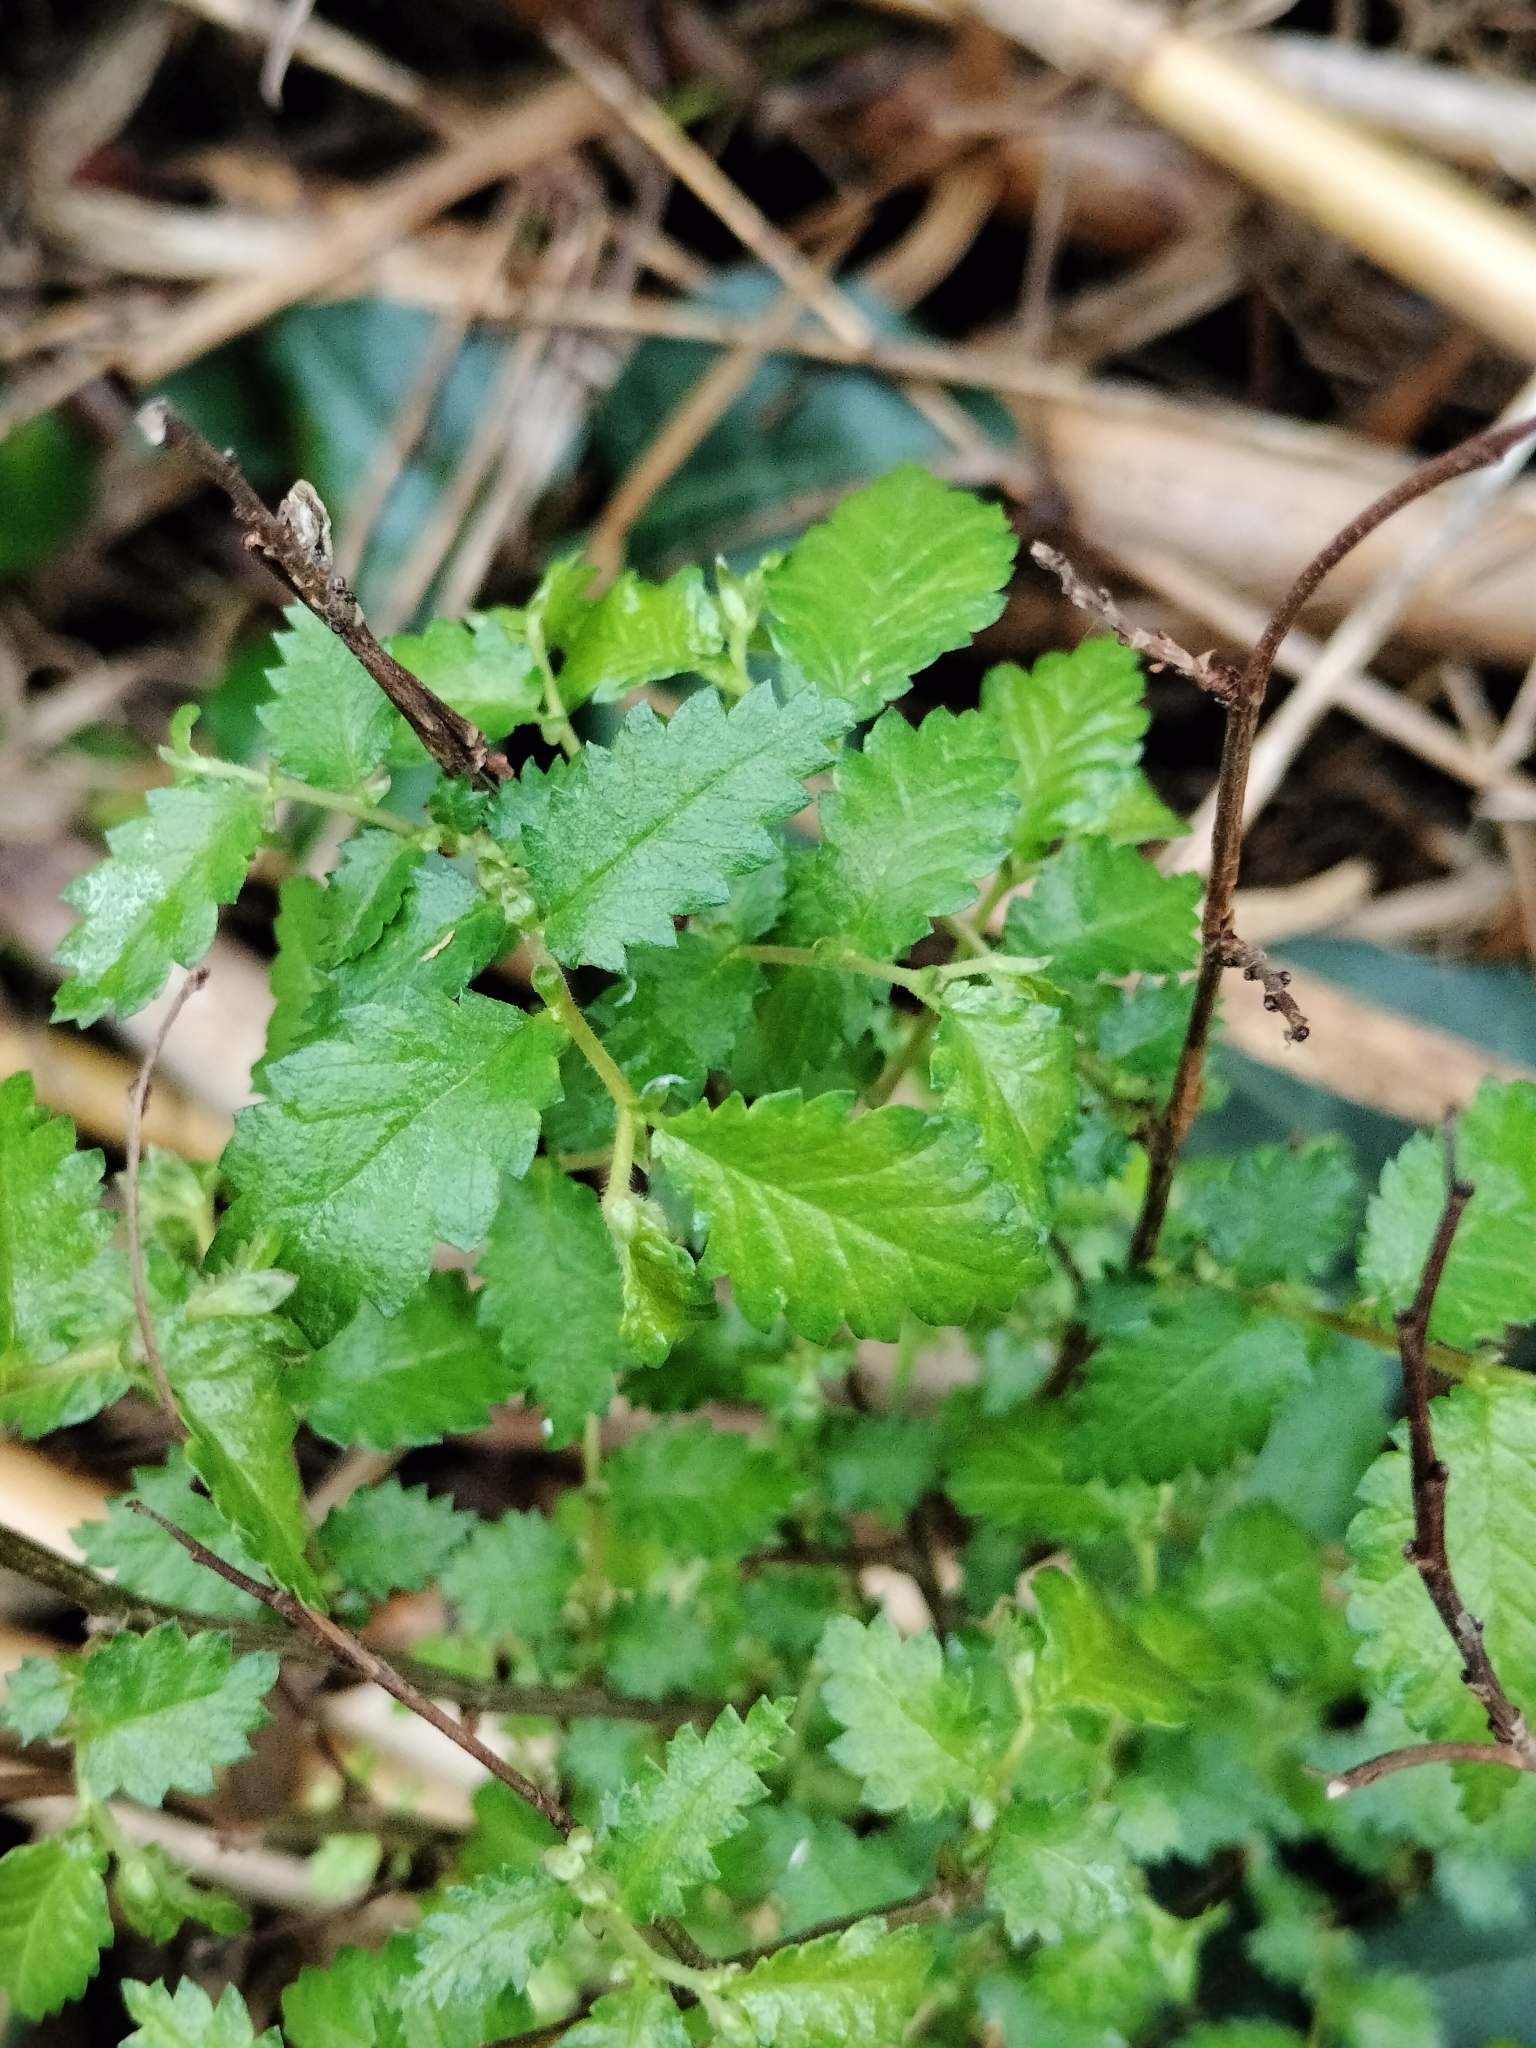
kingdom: Plantae
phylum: Tracheophyta
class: Magnoliopsida
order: Rosales
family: Ulmaceae
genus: Ulmus
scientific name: Ulmus minor
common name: Small-leaved elm
